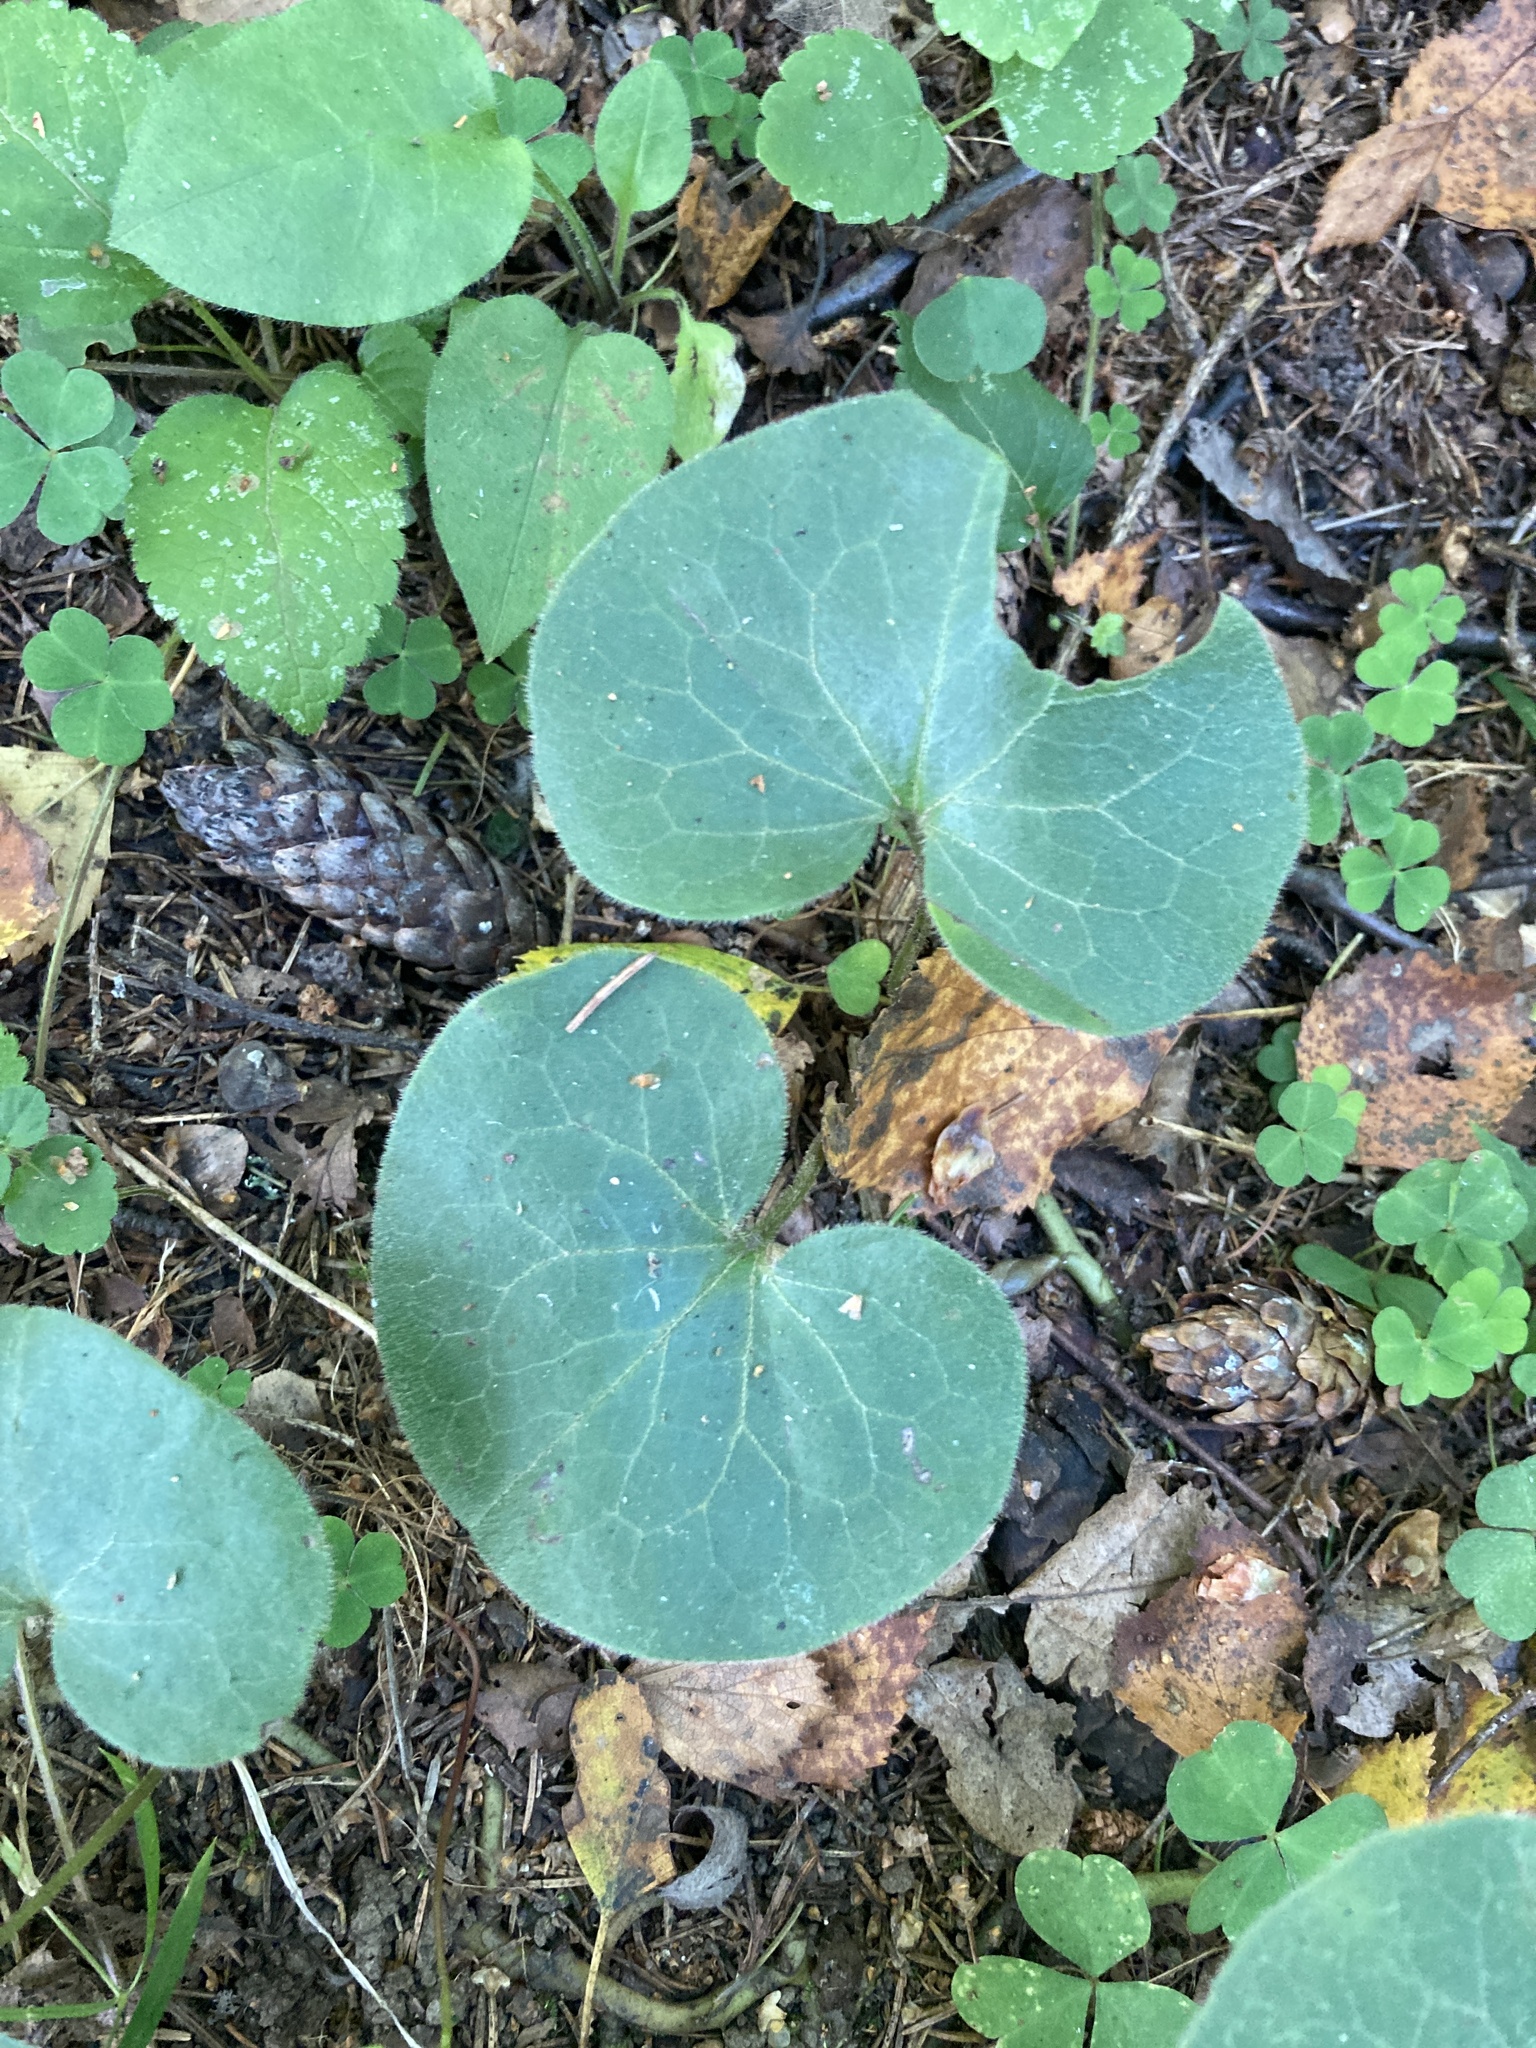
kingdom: Plantae
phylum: Tracheophyta
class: Magnoliopsida
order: Piperales
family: Aristolochiaceae
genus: Asarum
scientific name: Asarum europaeum
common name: Asarabacca
